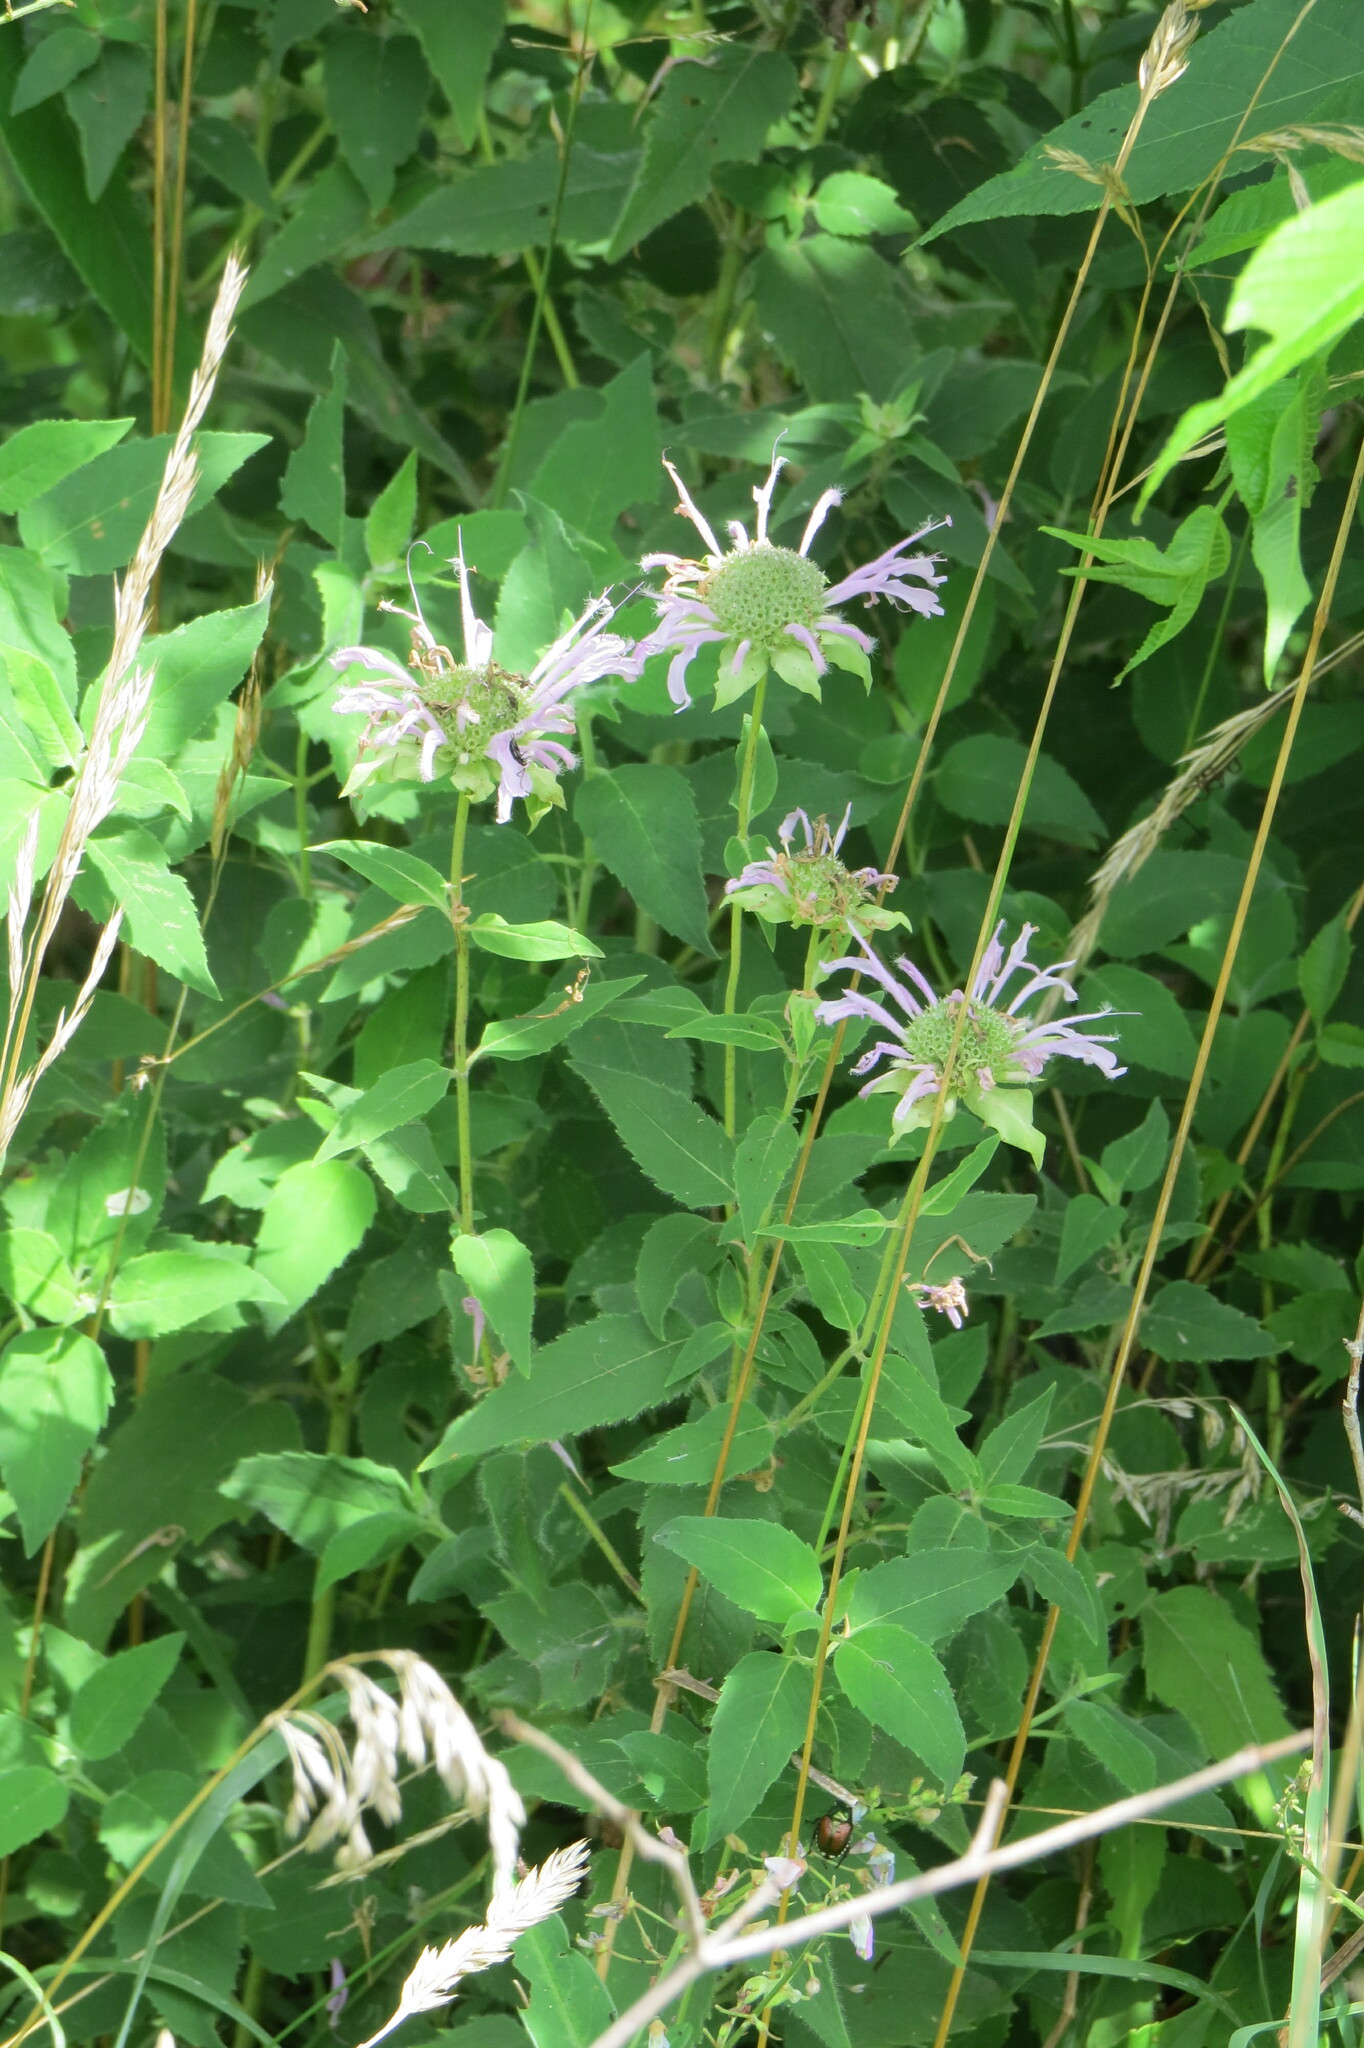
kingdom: Plantae
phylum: Tracheophyta
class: Magnoliopsida
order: Lamiales
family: Lamiaceae
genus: Monarda
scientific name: Monarda fistulosa
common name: Purple beebalm
